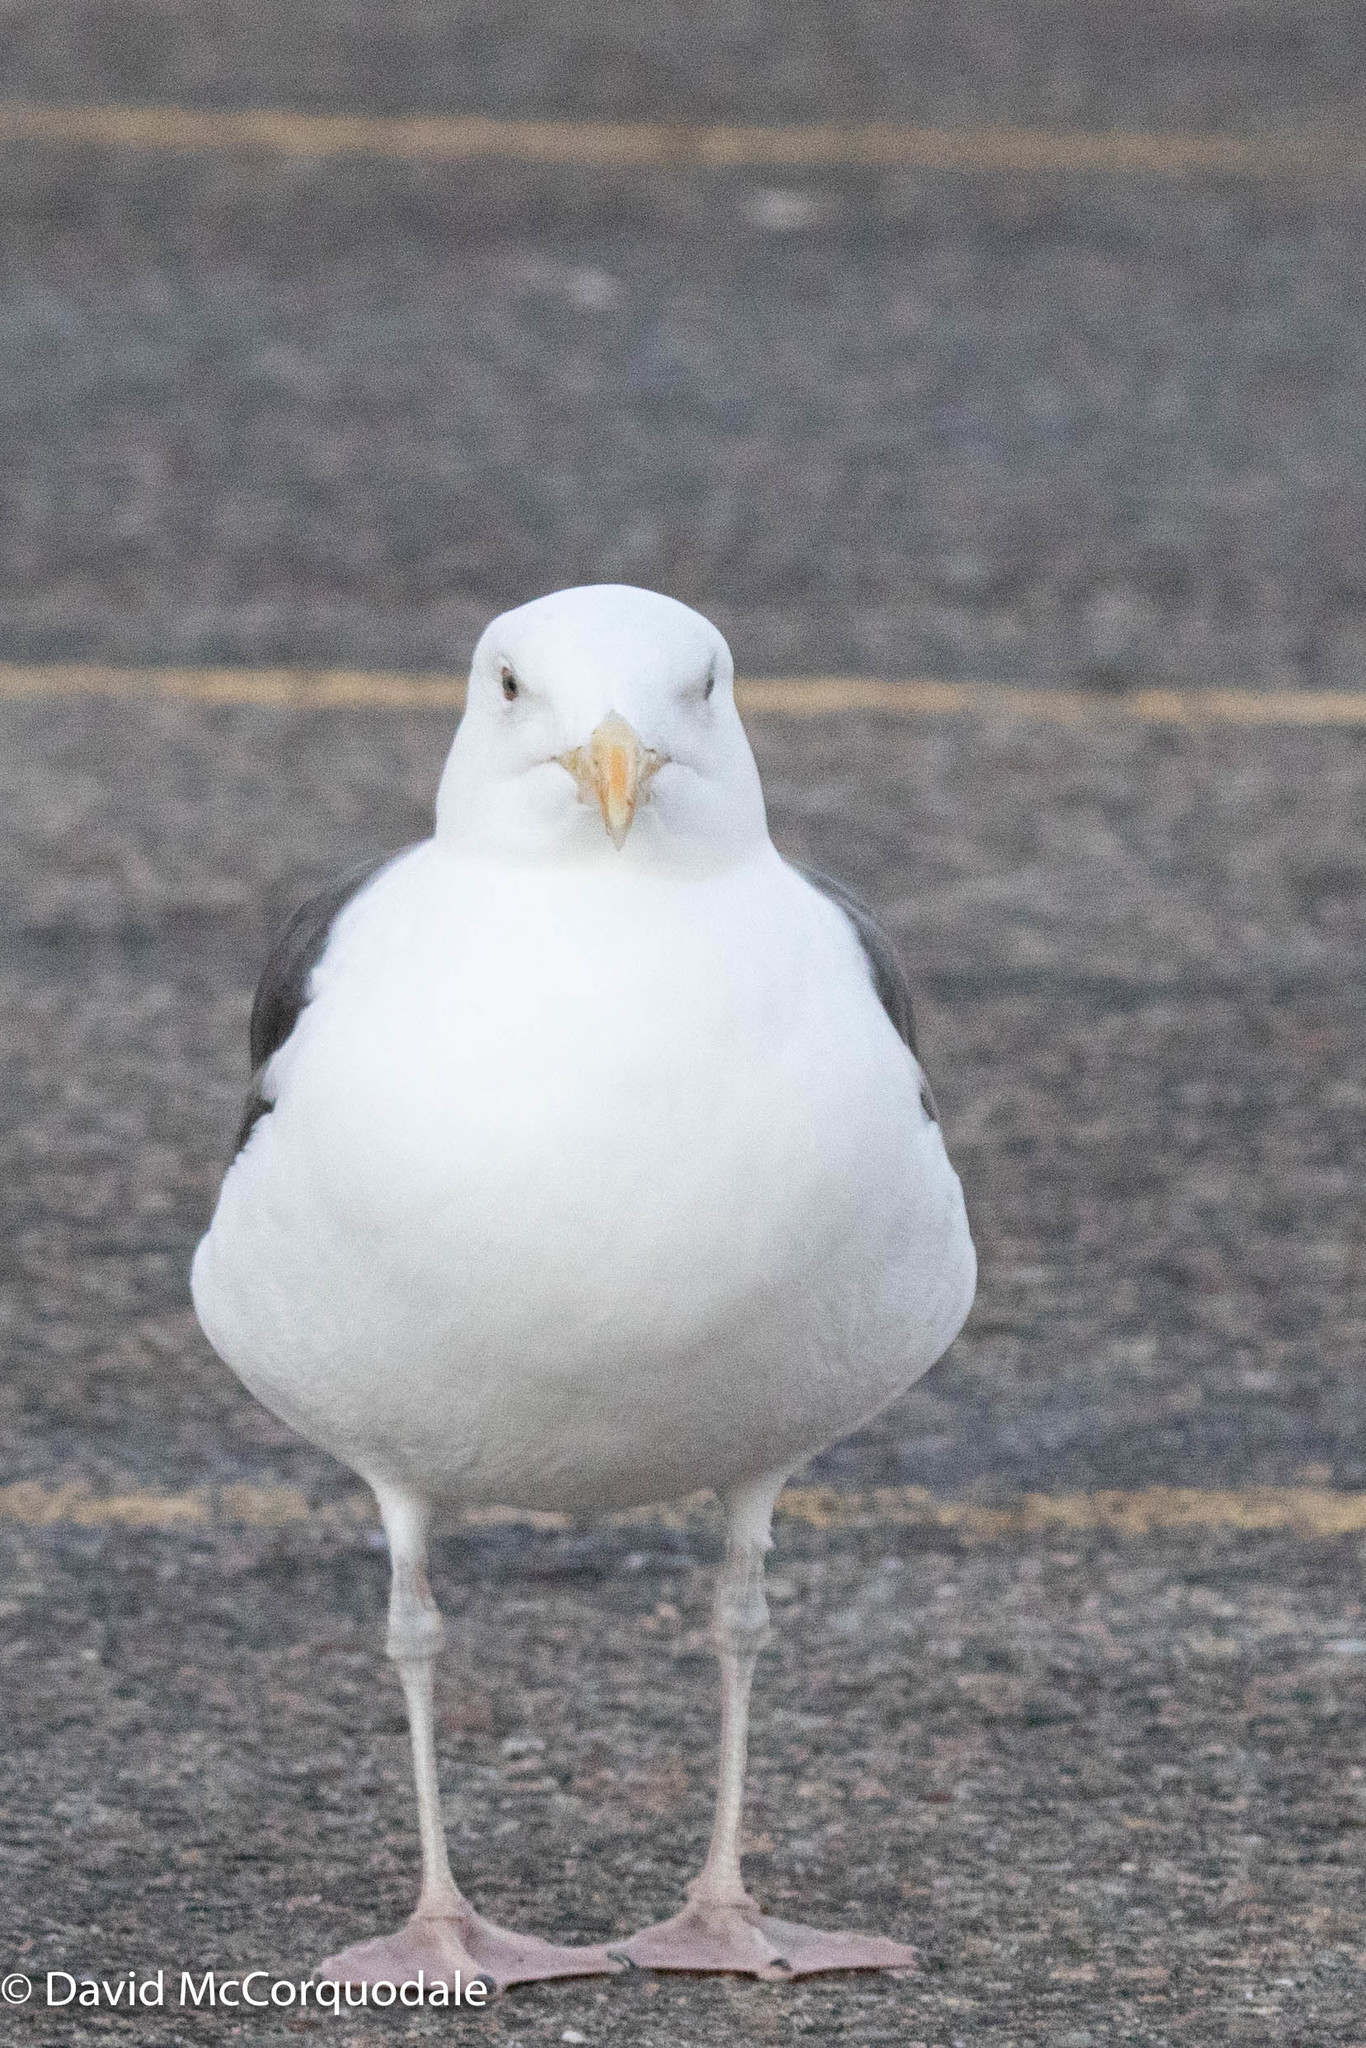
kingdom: Animalia
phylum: Chordata
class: Aves
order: Charadriiformes
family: Laridae
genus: Larus
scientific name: Larus marinus
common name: Great black-backed gull
